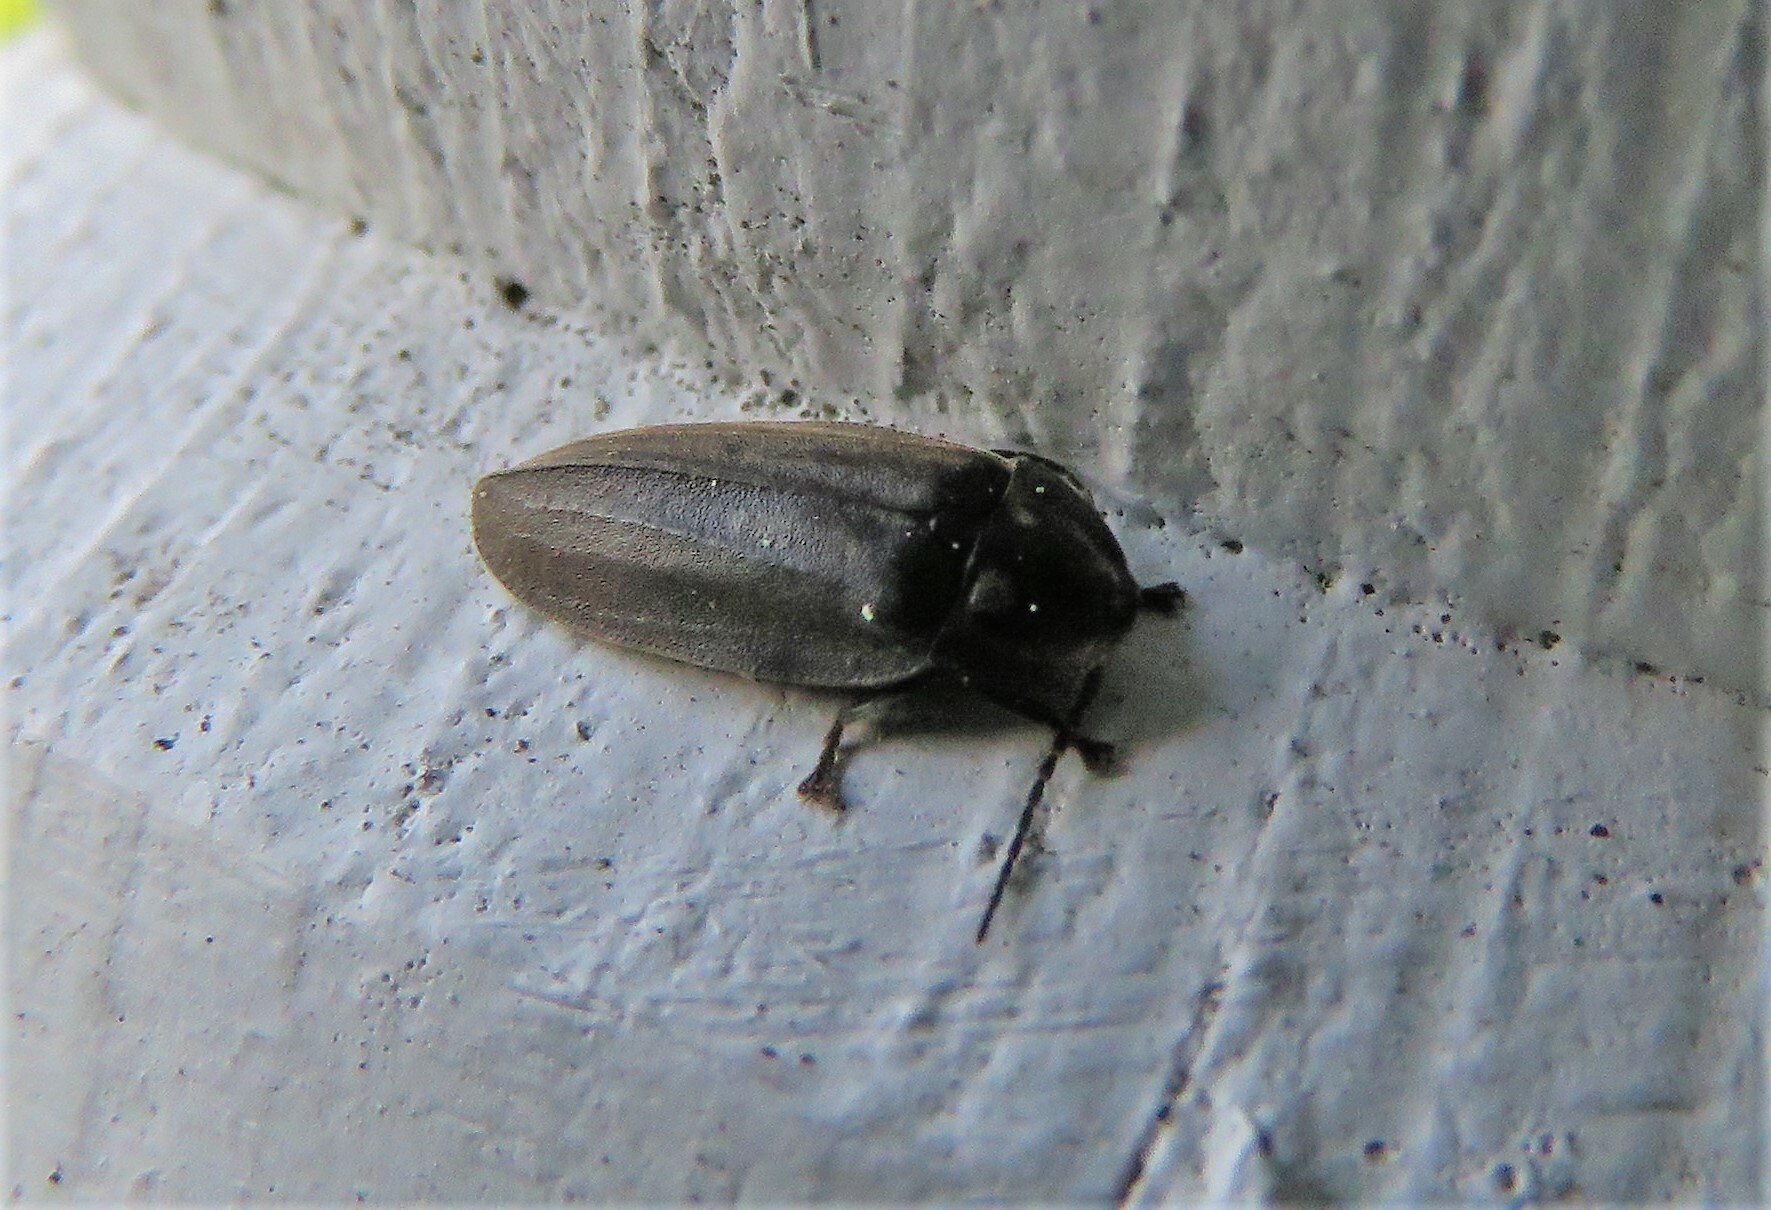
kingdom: Animalia
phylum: Arthropoda
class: Insecta
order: Coleoptera
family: Lampyridae
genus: Photinus
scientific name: Photinus corrusca
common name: Winter firefly
